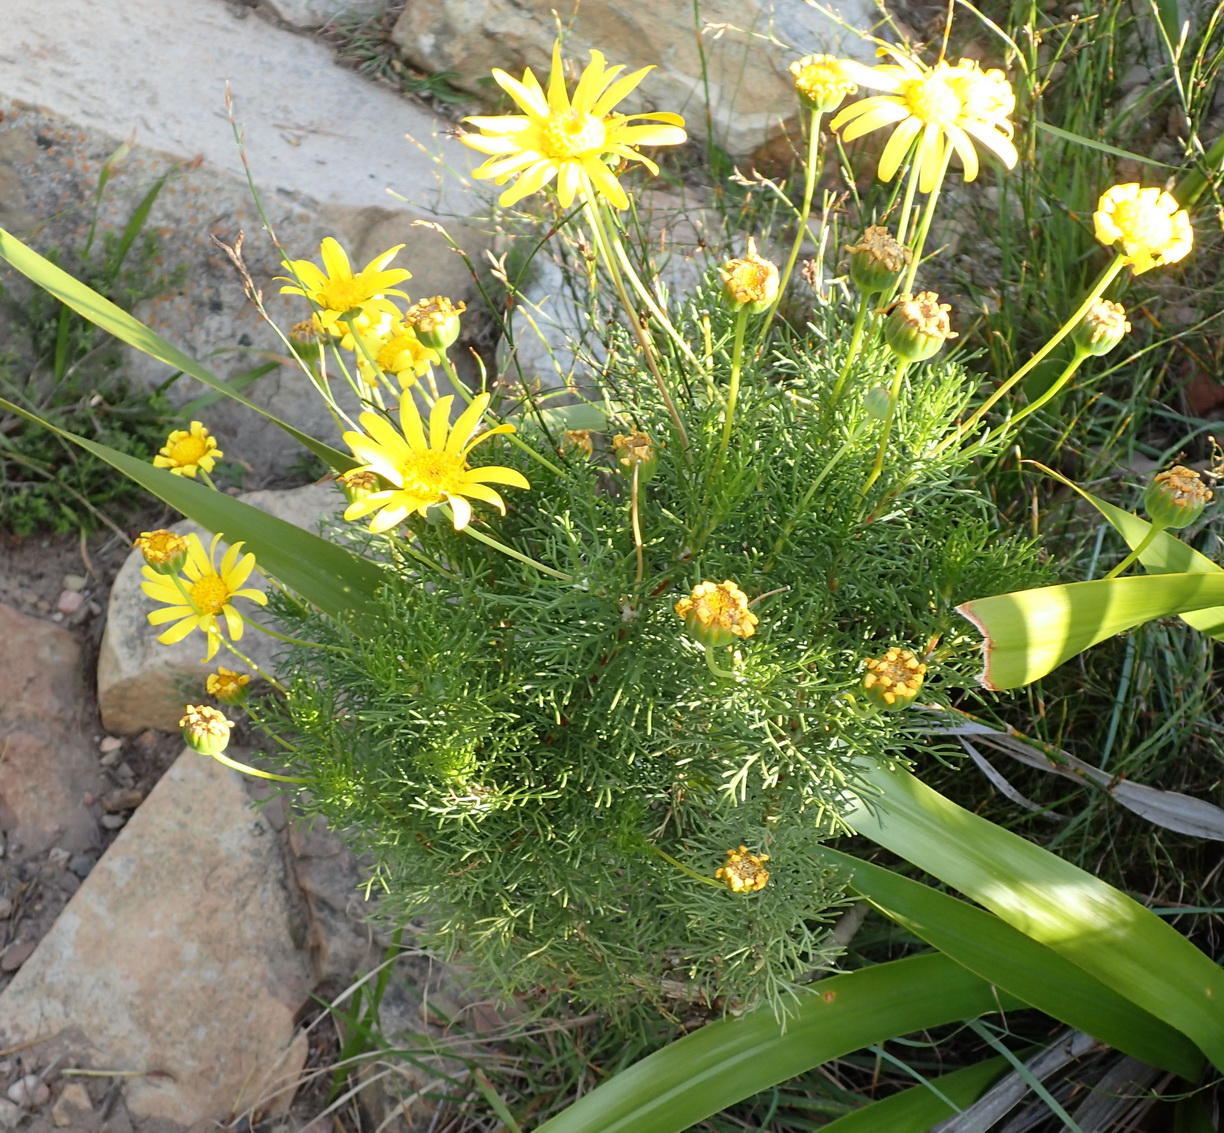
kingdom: Plantae
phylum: Tracheophyta
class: Magnoliopsida
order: Asterales
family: Asteraceae
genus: Euryops
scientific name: Euryops abrotanifolius
